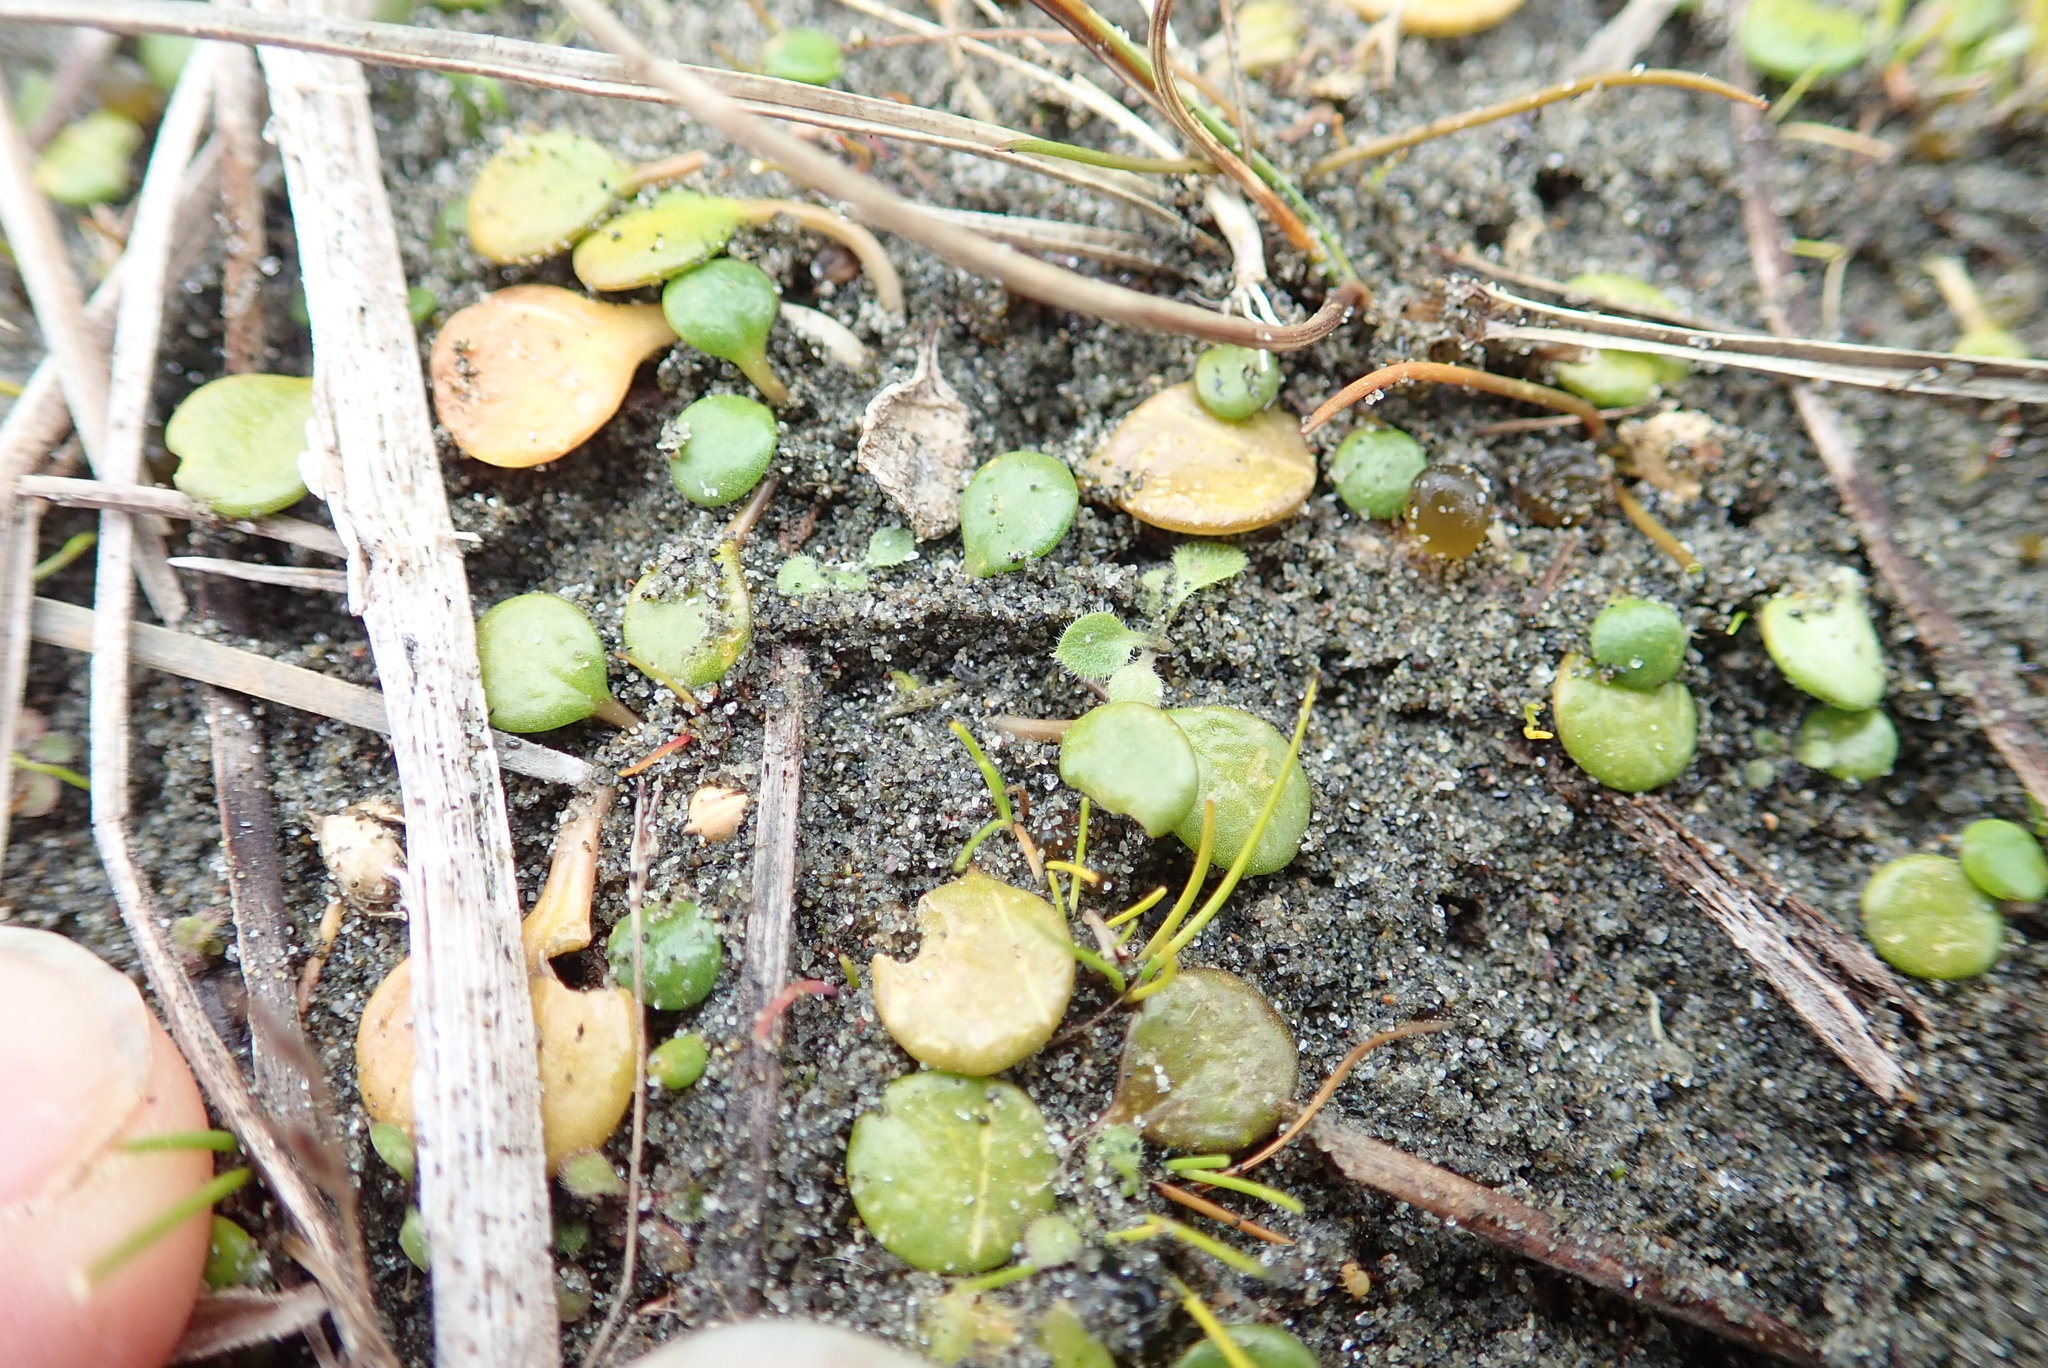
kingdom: Plantae
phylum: Tracheophyta
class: Magnoliopsida
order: Asterales
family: Goodeniaceae
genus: Goodenia
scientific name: Goodenia heenanii
